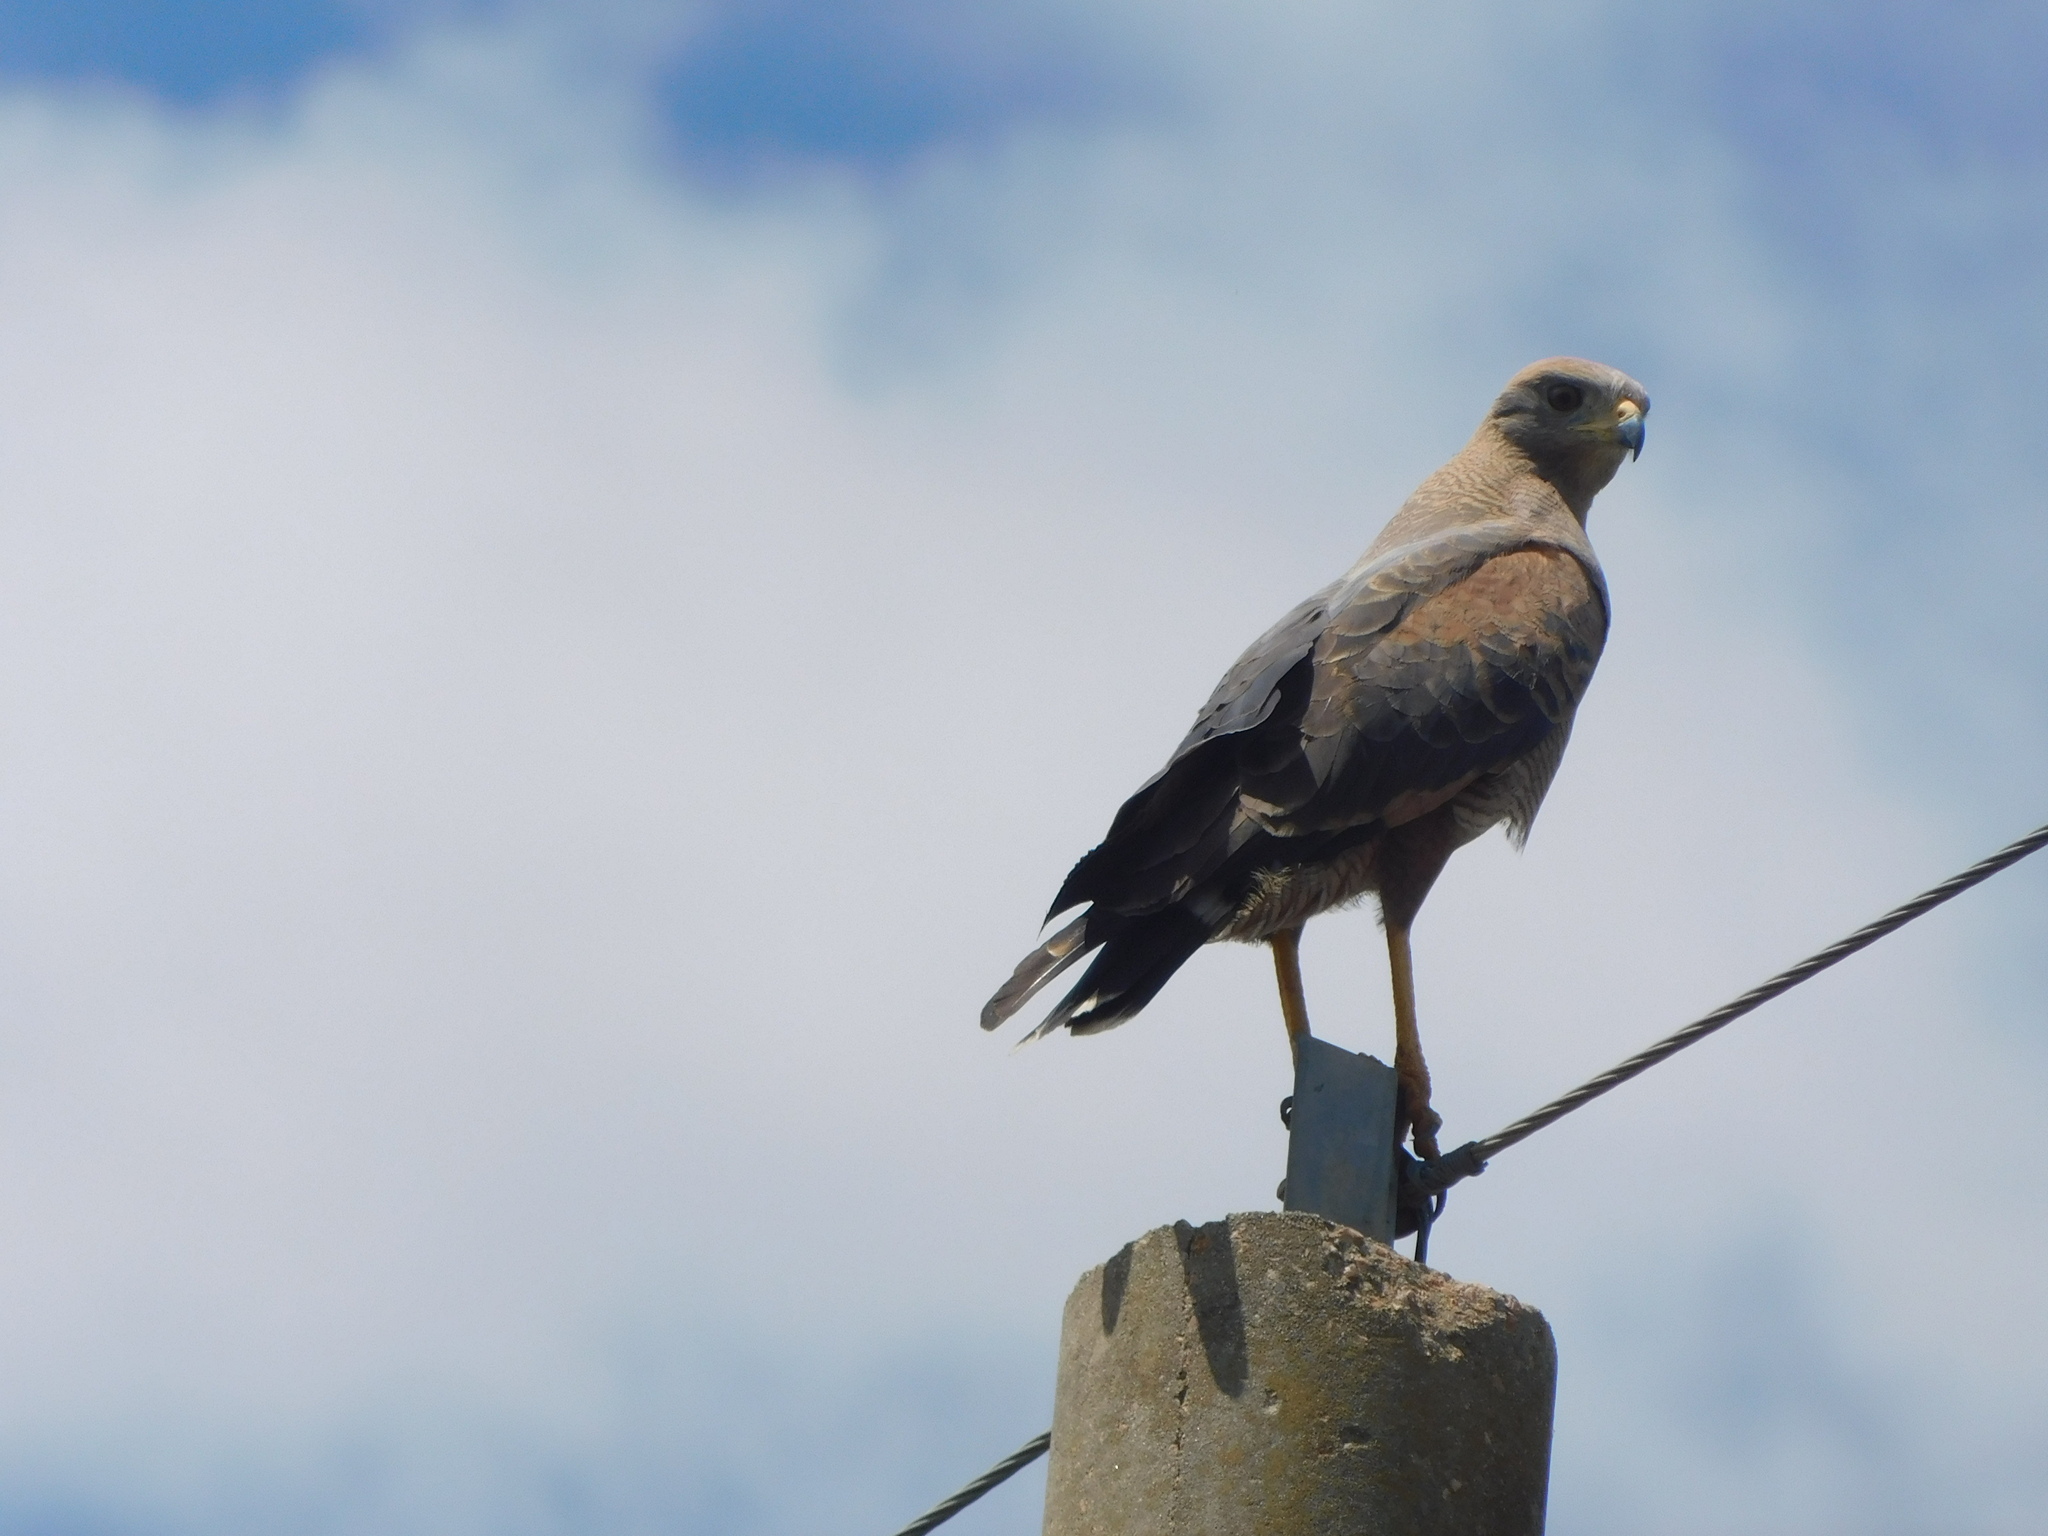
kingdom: Animalia
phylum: Chordata
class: Aves
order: Accipitriformes
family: Accipitridae
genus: Buteogallus
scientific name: Buteogallus meridionalis
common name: Savanna hawk
